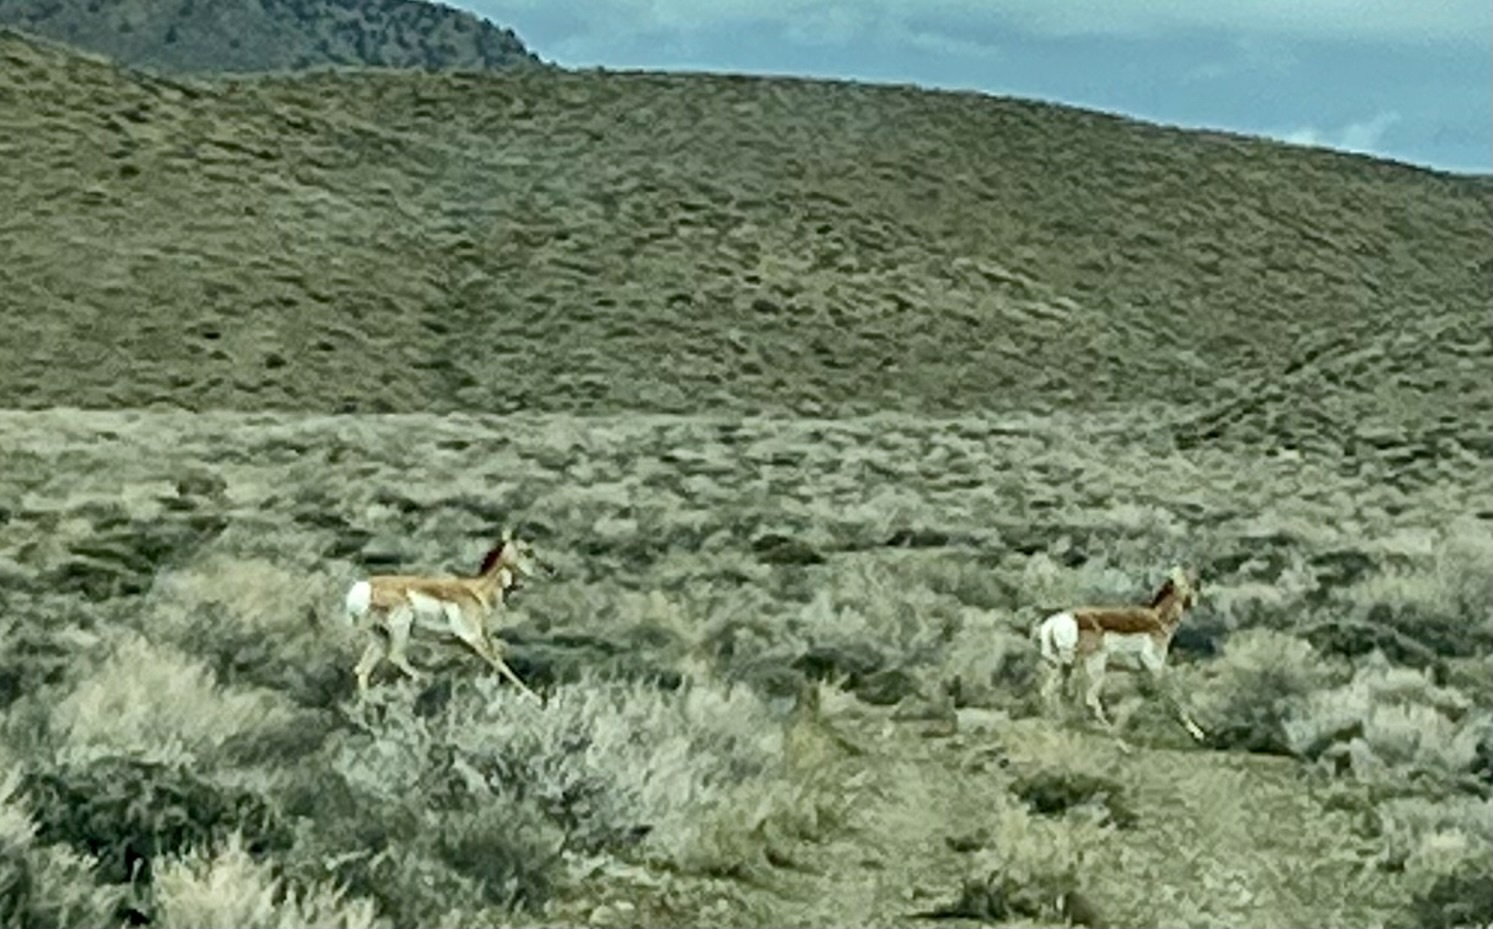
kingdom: Animalia
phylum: Chordata
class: Mammalia
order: Artiodactyla
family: Antilocapridae
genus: Antilocapra
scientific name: Antilocapra americana
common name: Pronghorn
